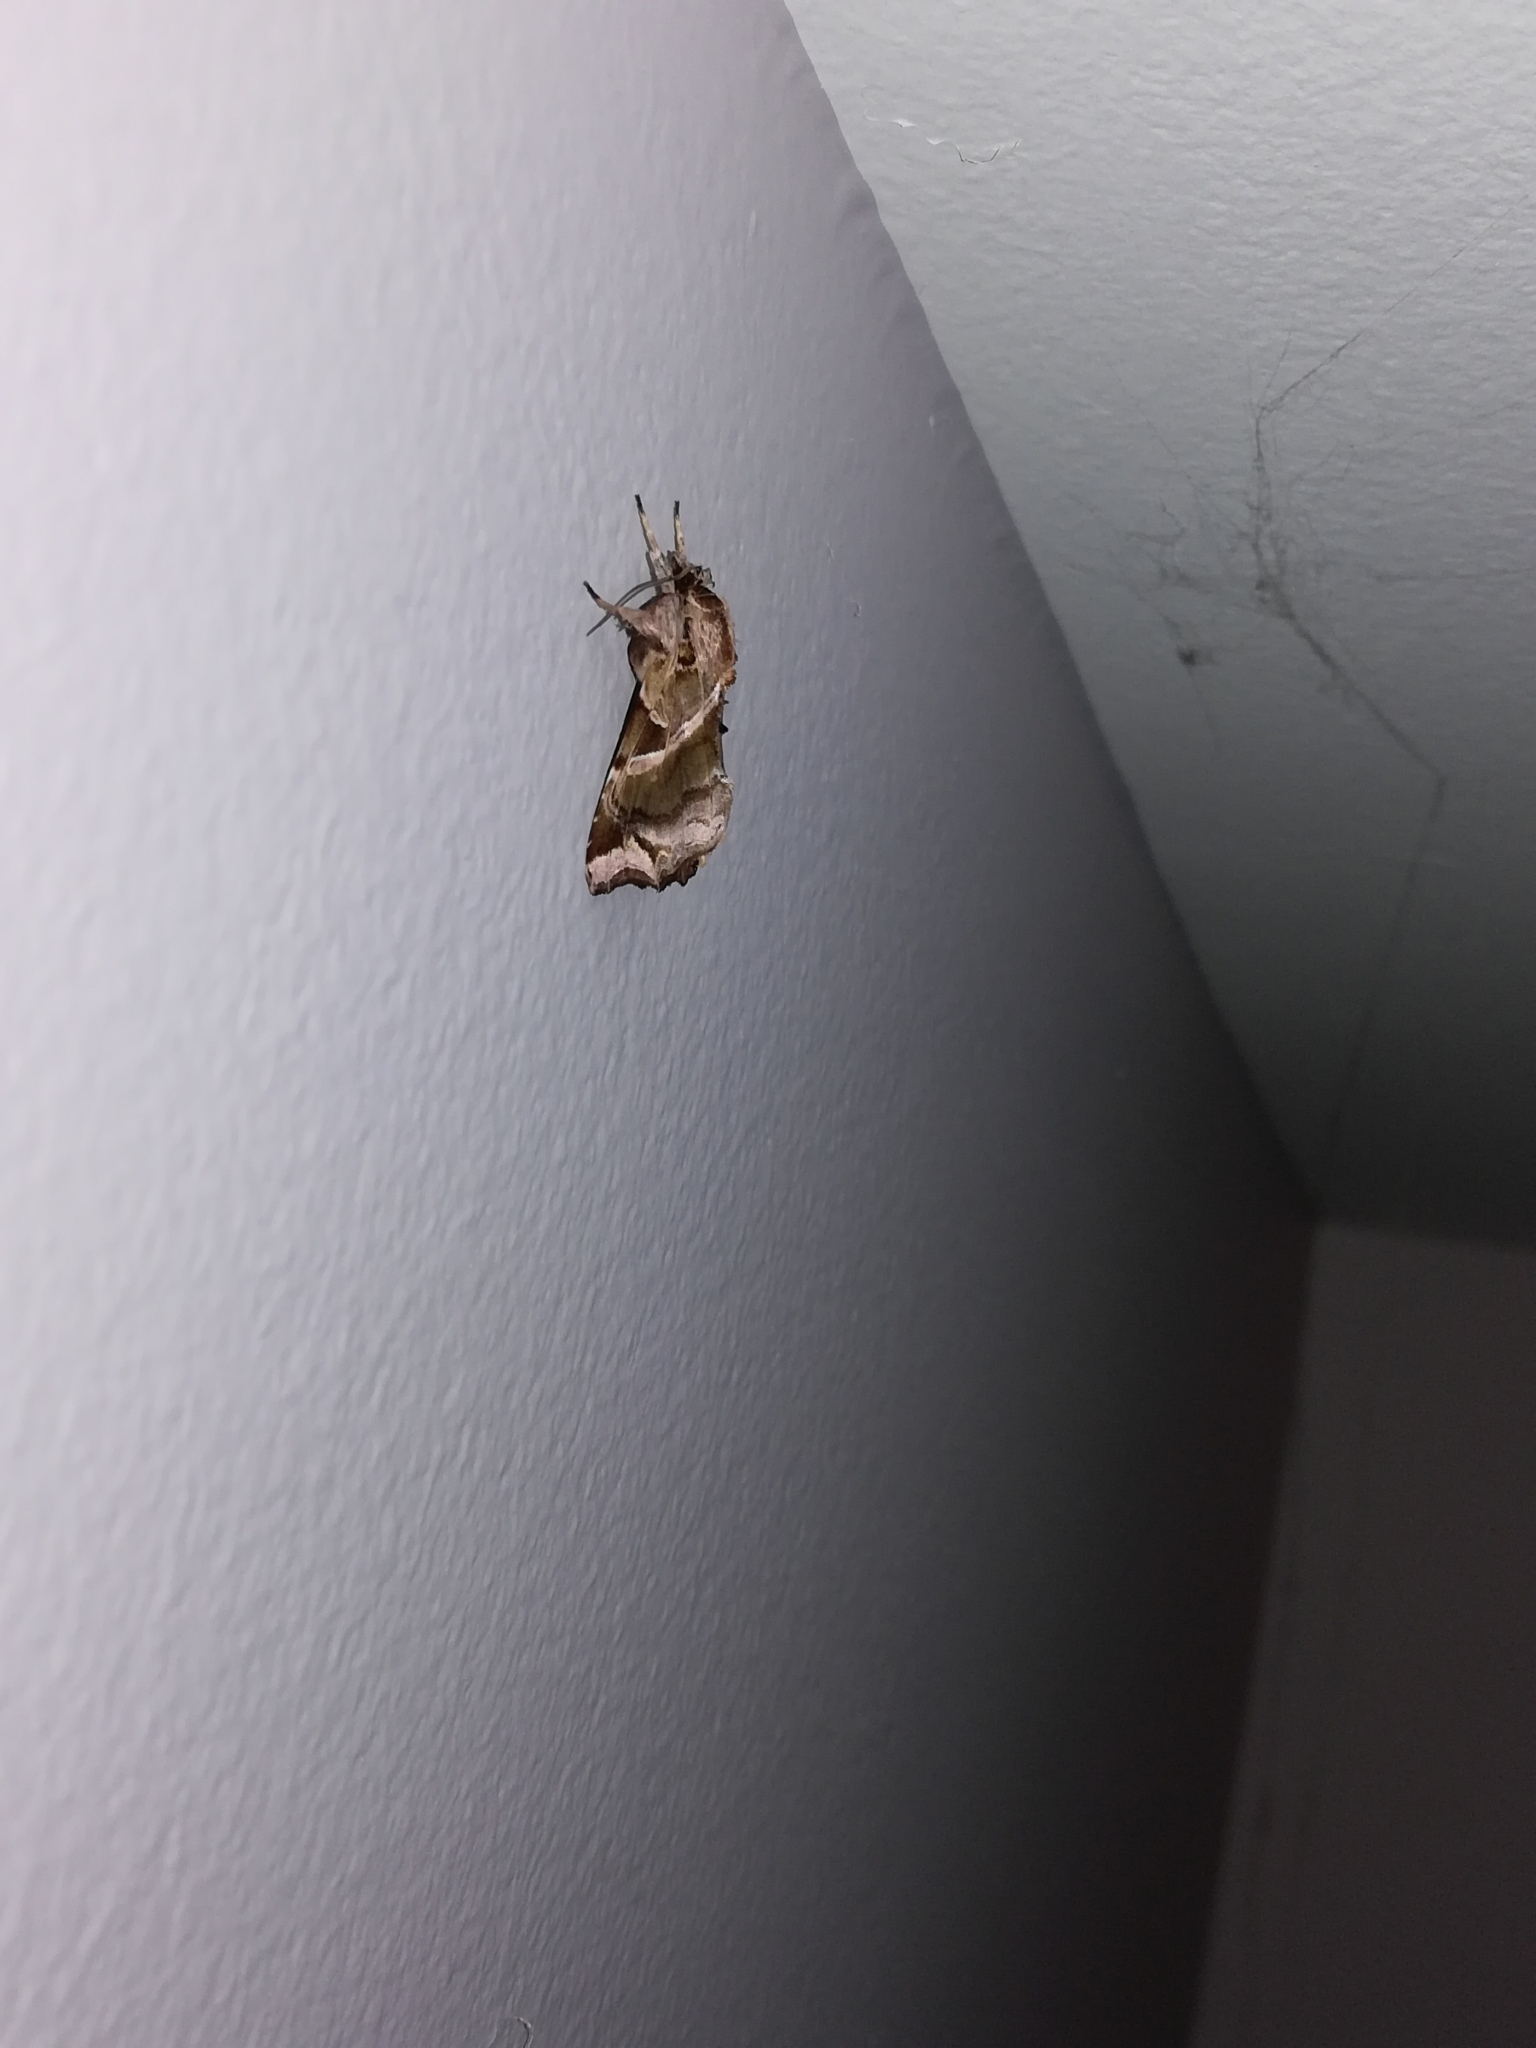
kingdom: Animalia
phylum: Arthropoda
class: Insecta
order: Lepidoptera
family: Noctuidae
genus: Callopistria
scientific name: Callopistria floridensis
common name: Florida fern moth
